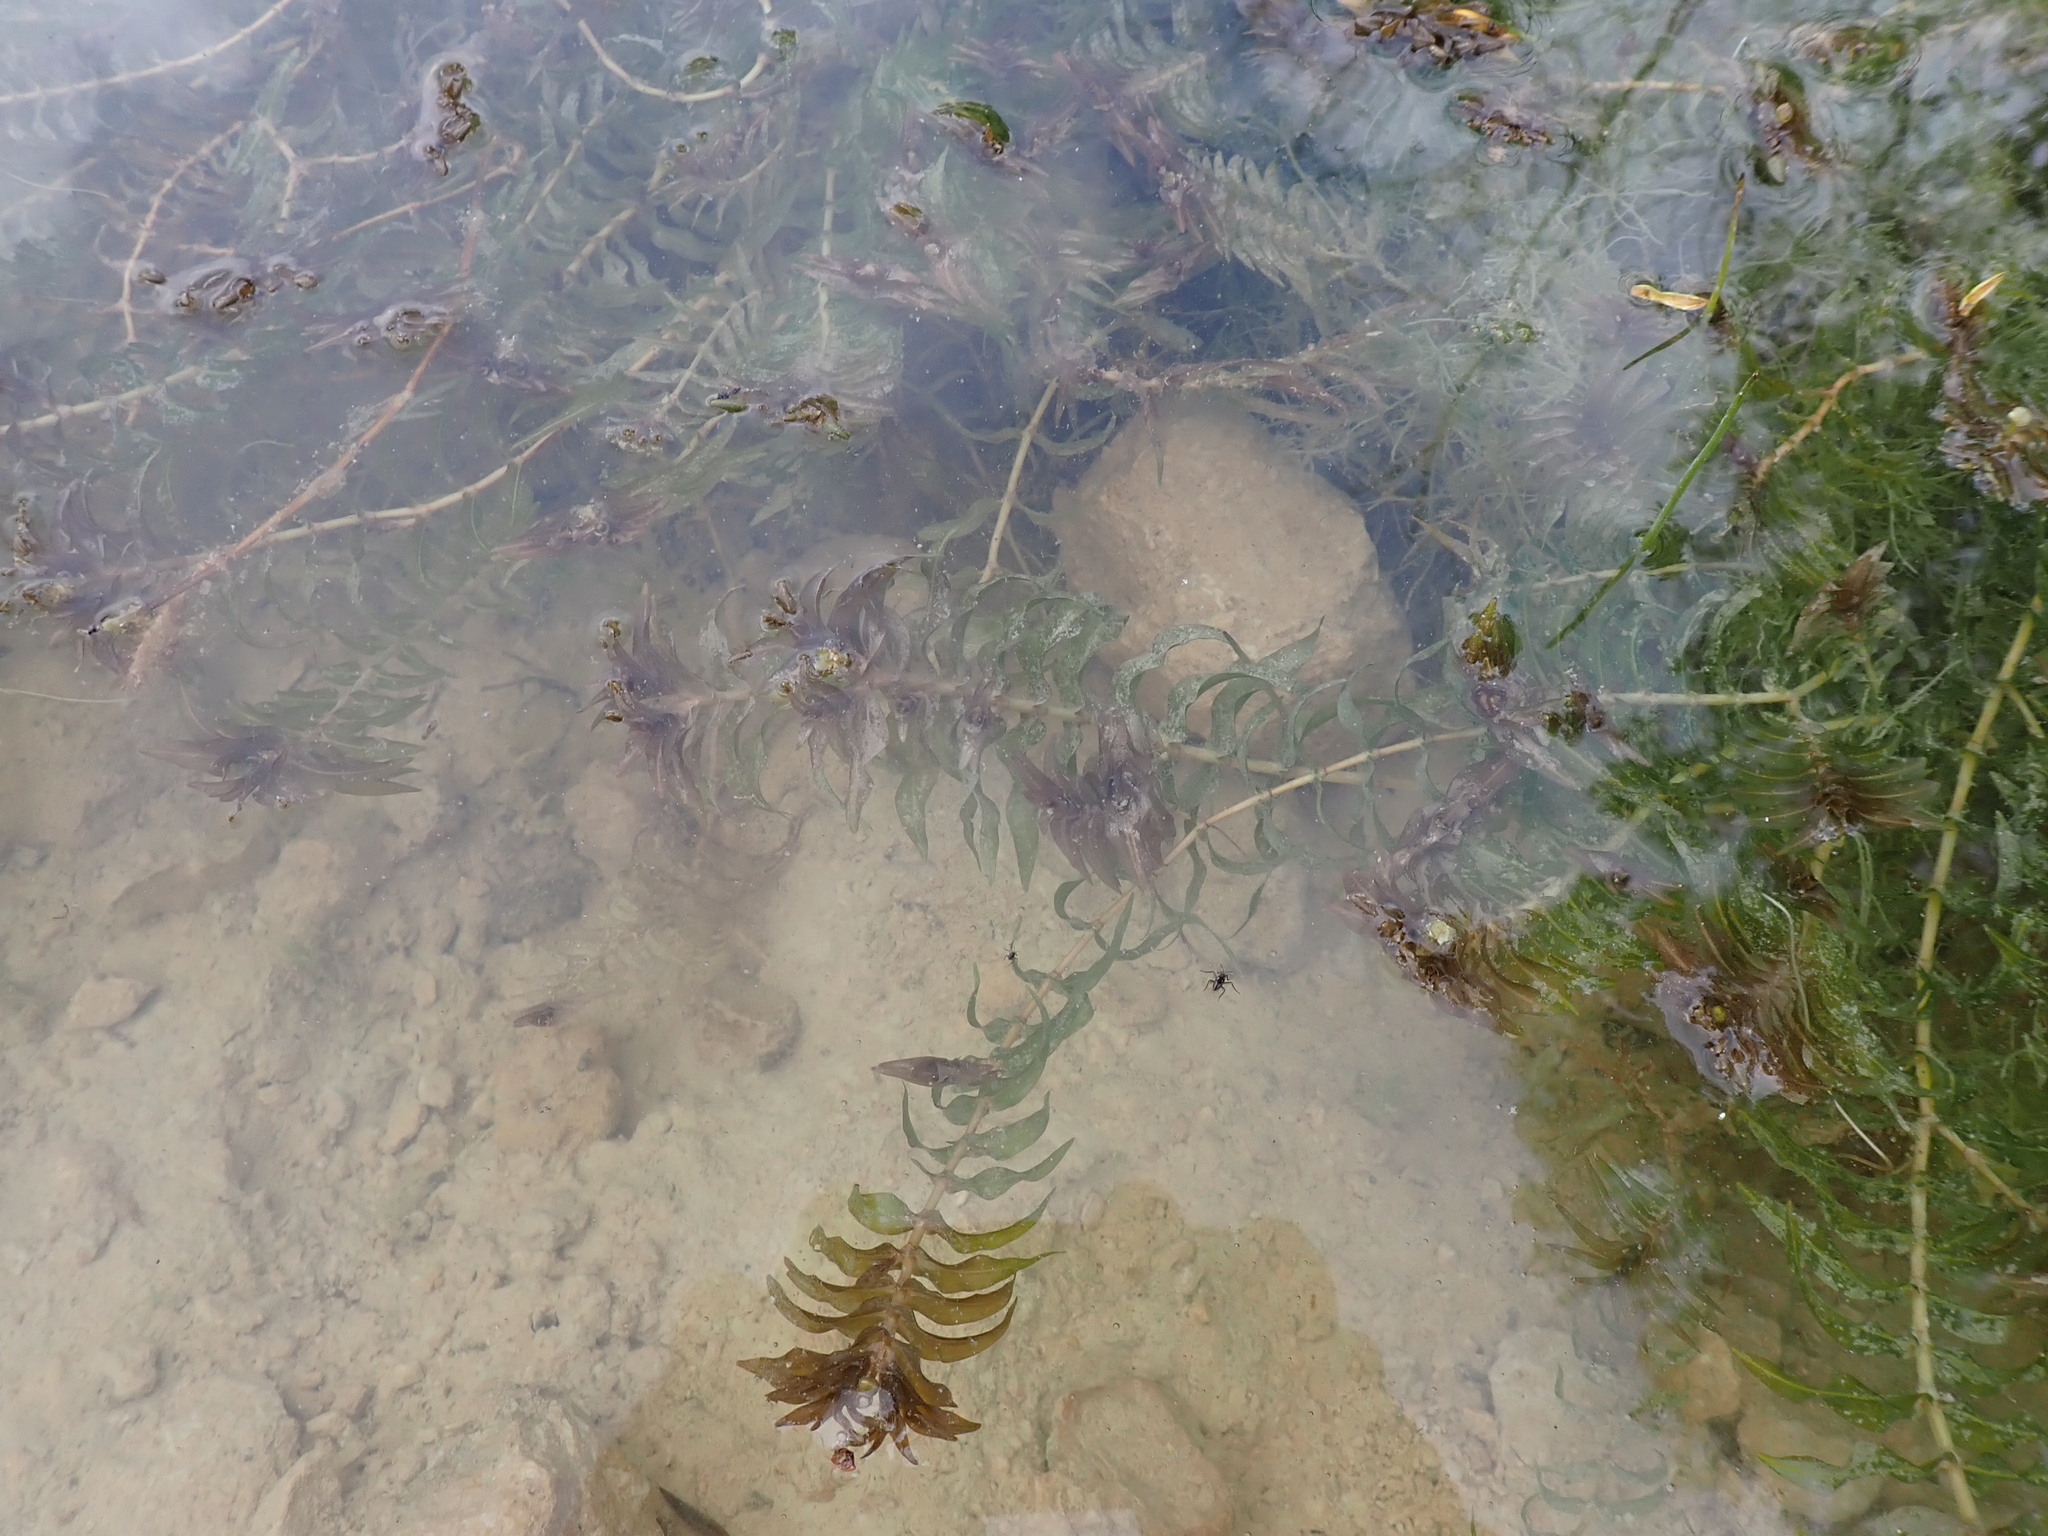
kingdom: Plantae
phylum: Tracheophyta
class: Liliopsida
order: Alismatales
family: Potamogetonaceae
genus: Groenlandia
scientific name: Groenlandia densa
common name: Opposite-leaved pondweed
